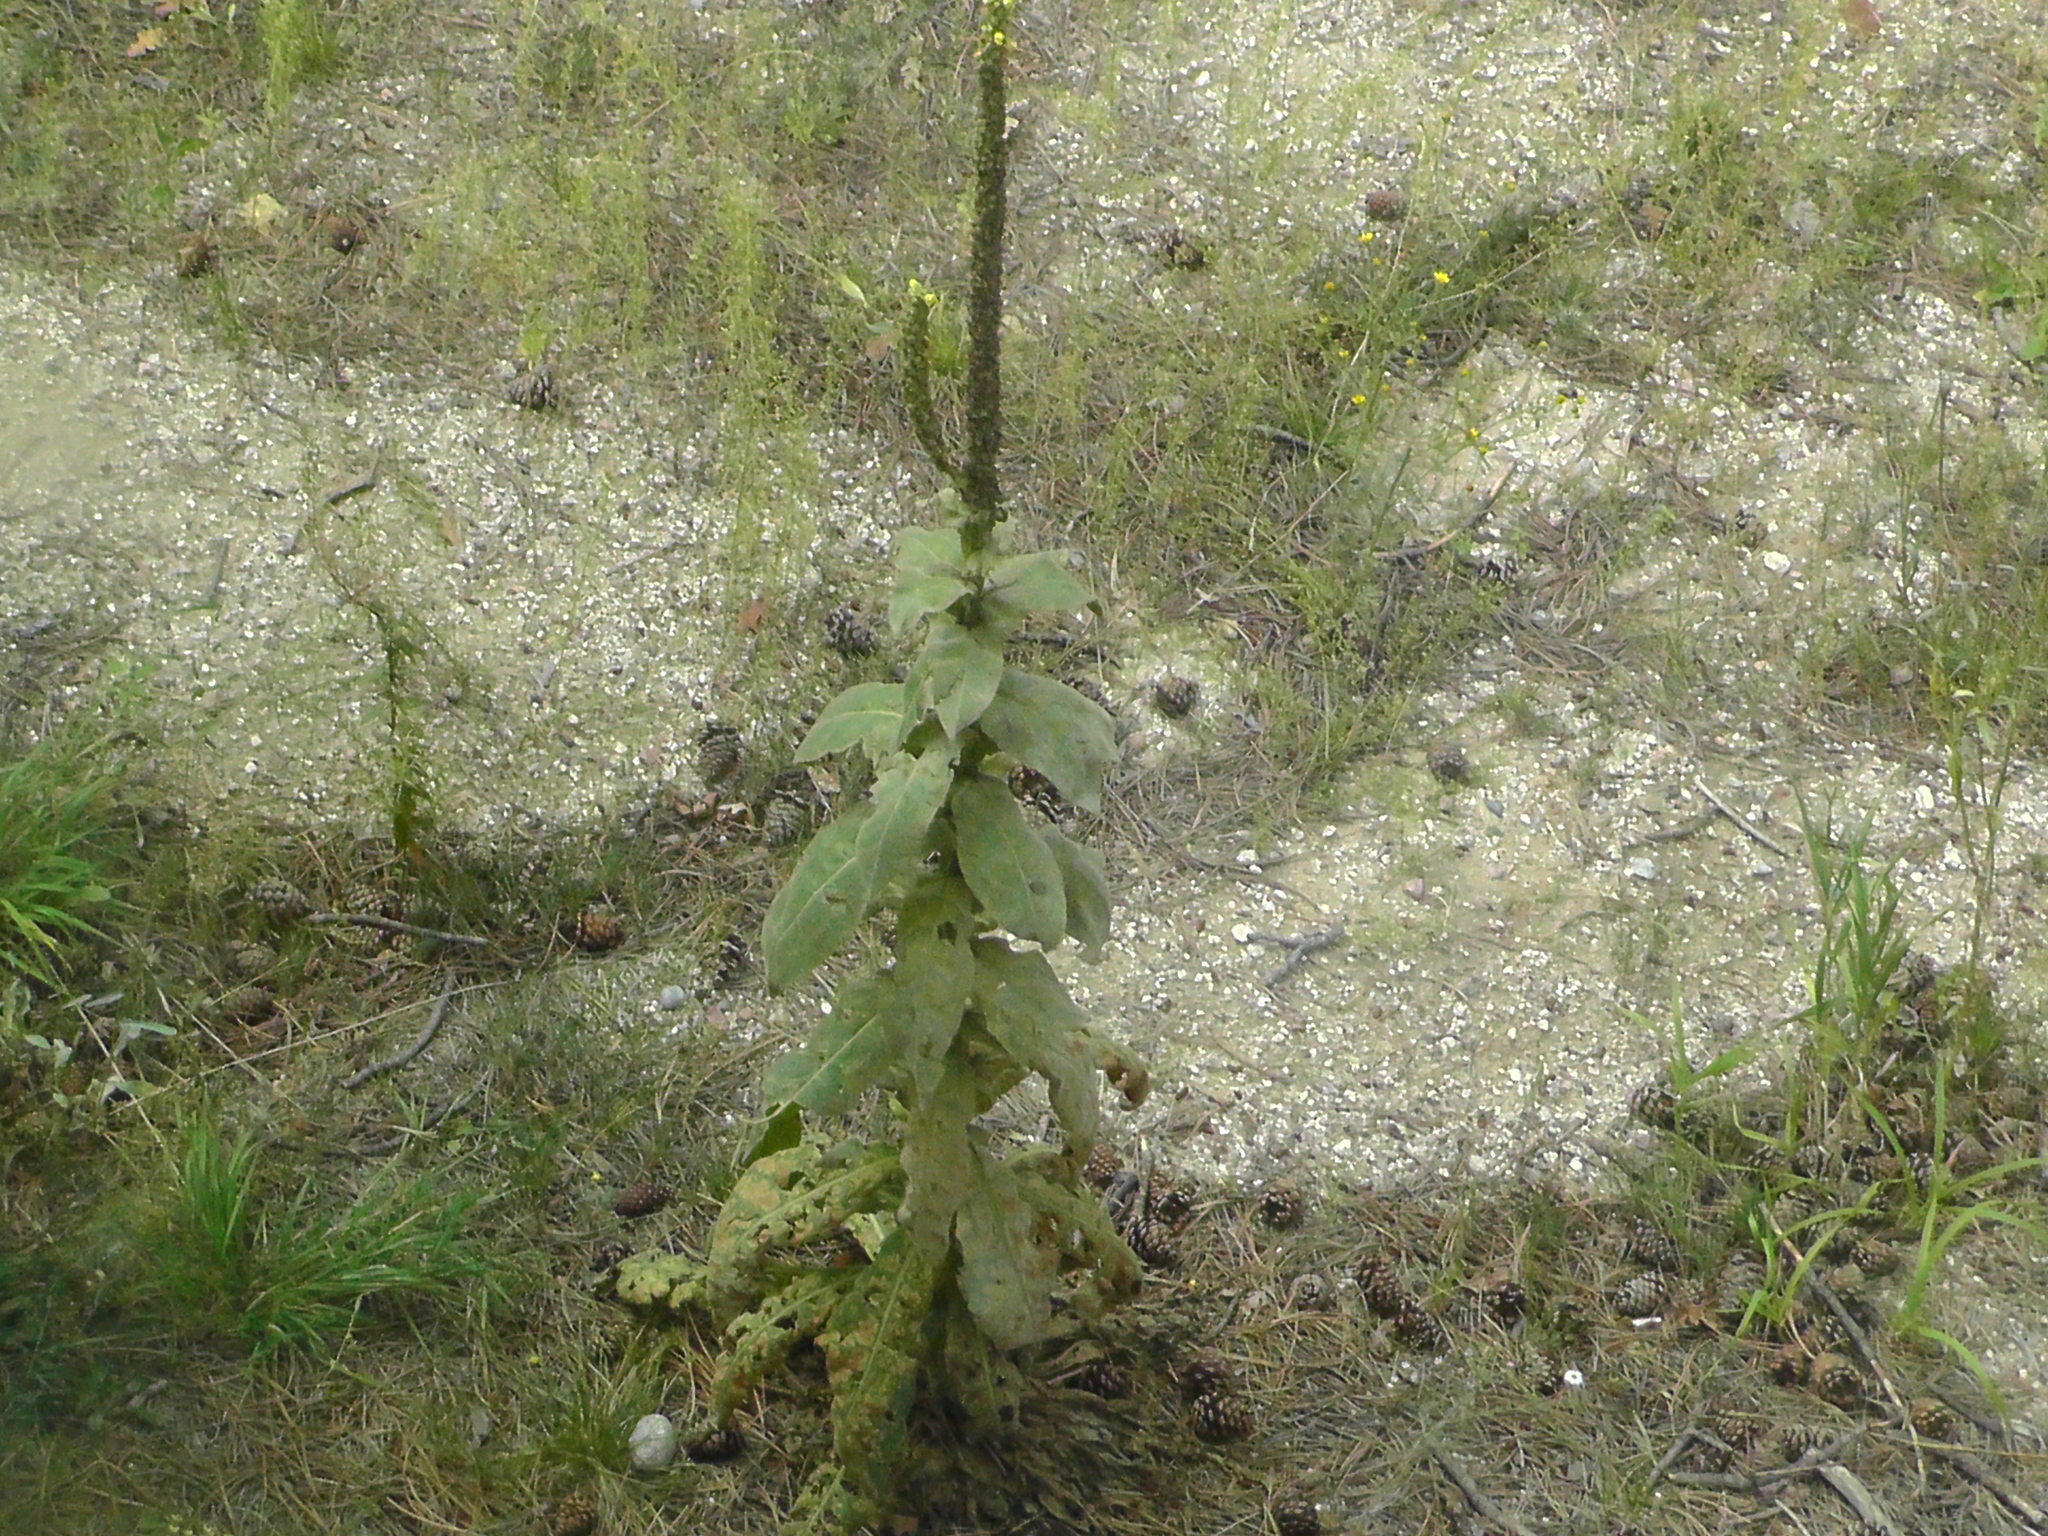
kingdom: Plantae
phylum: Tracheophyta
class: Magnoliopsida
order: Lamiales
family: Scrophulariaceae
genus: Verbascum
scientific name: Verbascum thapsus
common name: Common mullein
